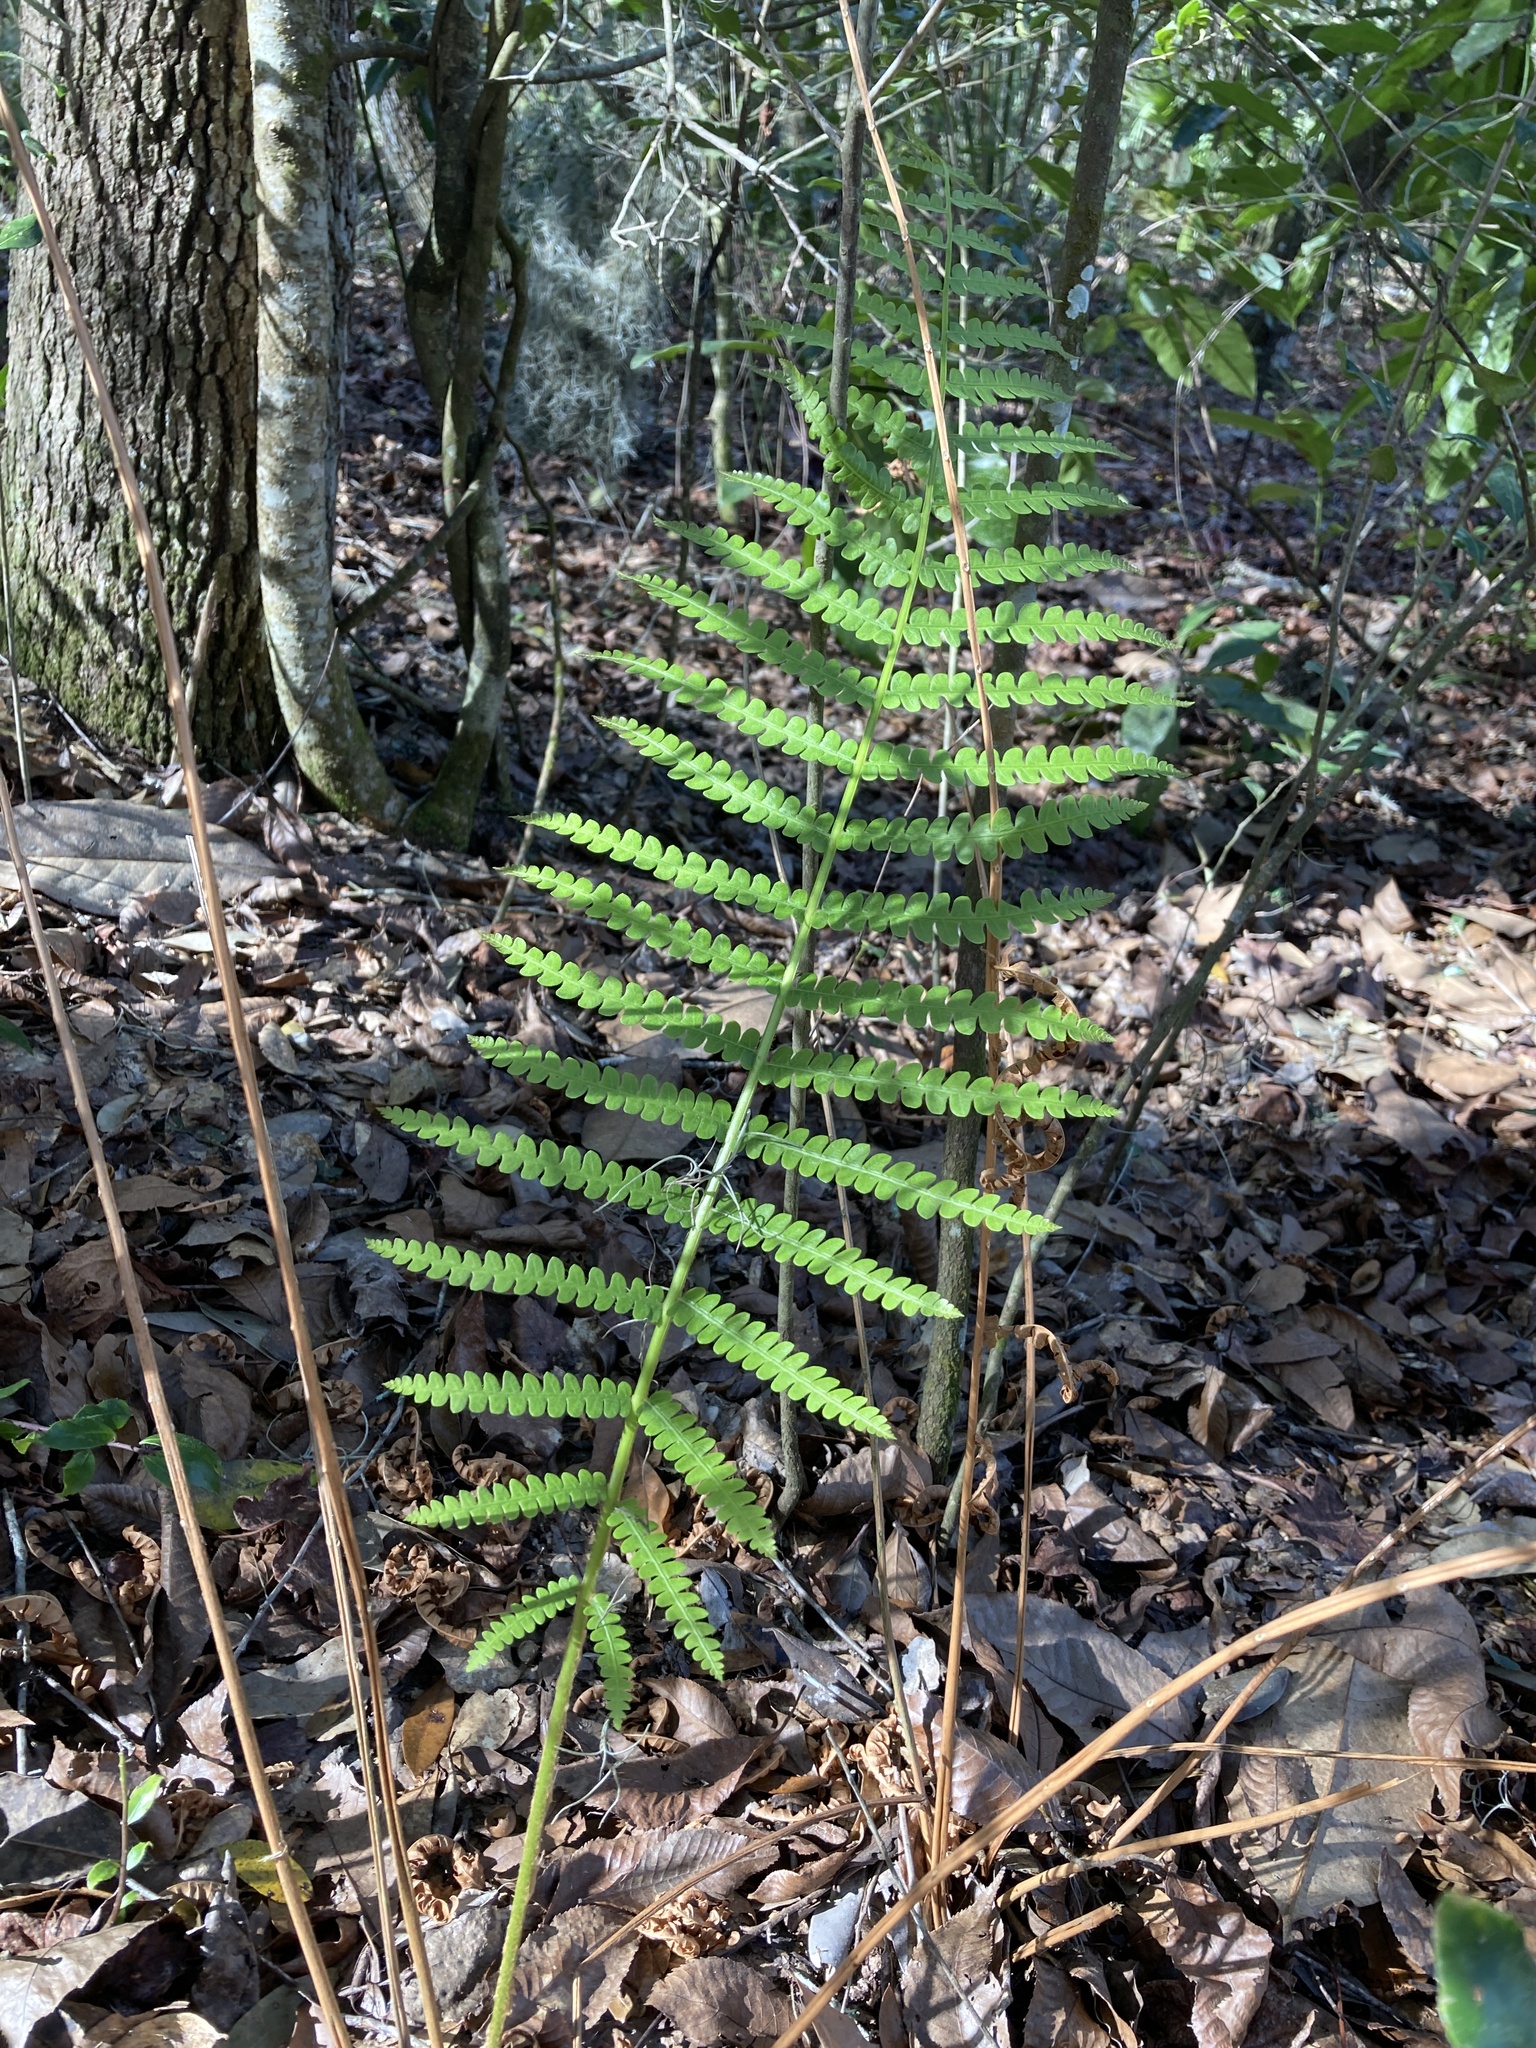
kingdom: Plantae
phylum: Tracheophyta
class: Polypodiopsida
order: Osmundales
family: Osmundaceae
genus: Osmundastrum
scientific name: Osmundastrum cinnamomeum
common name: Cinnamon fern
